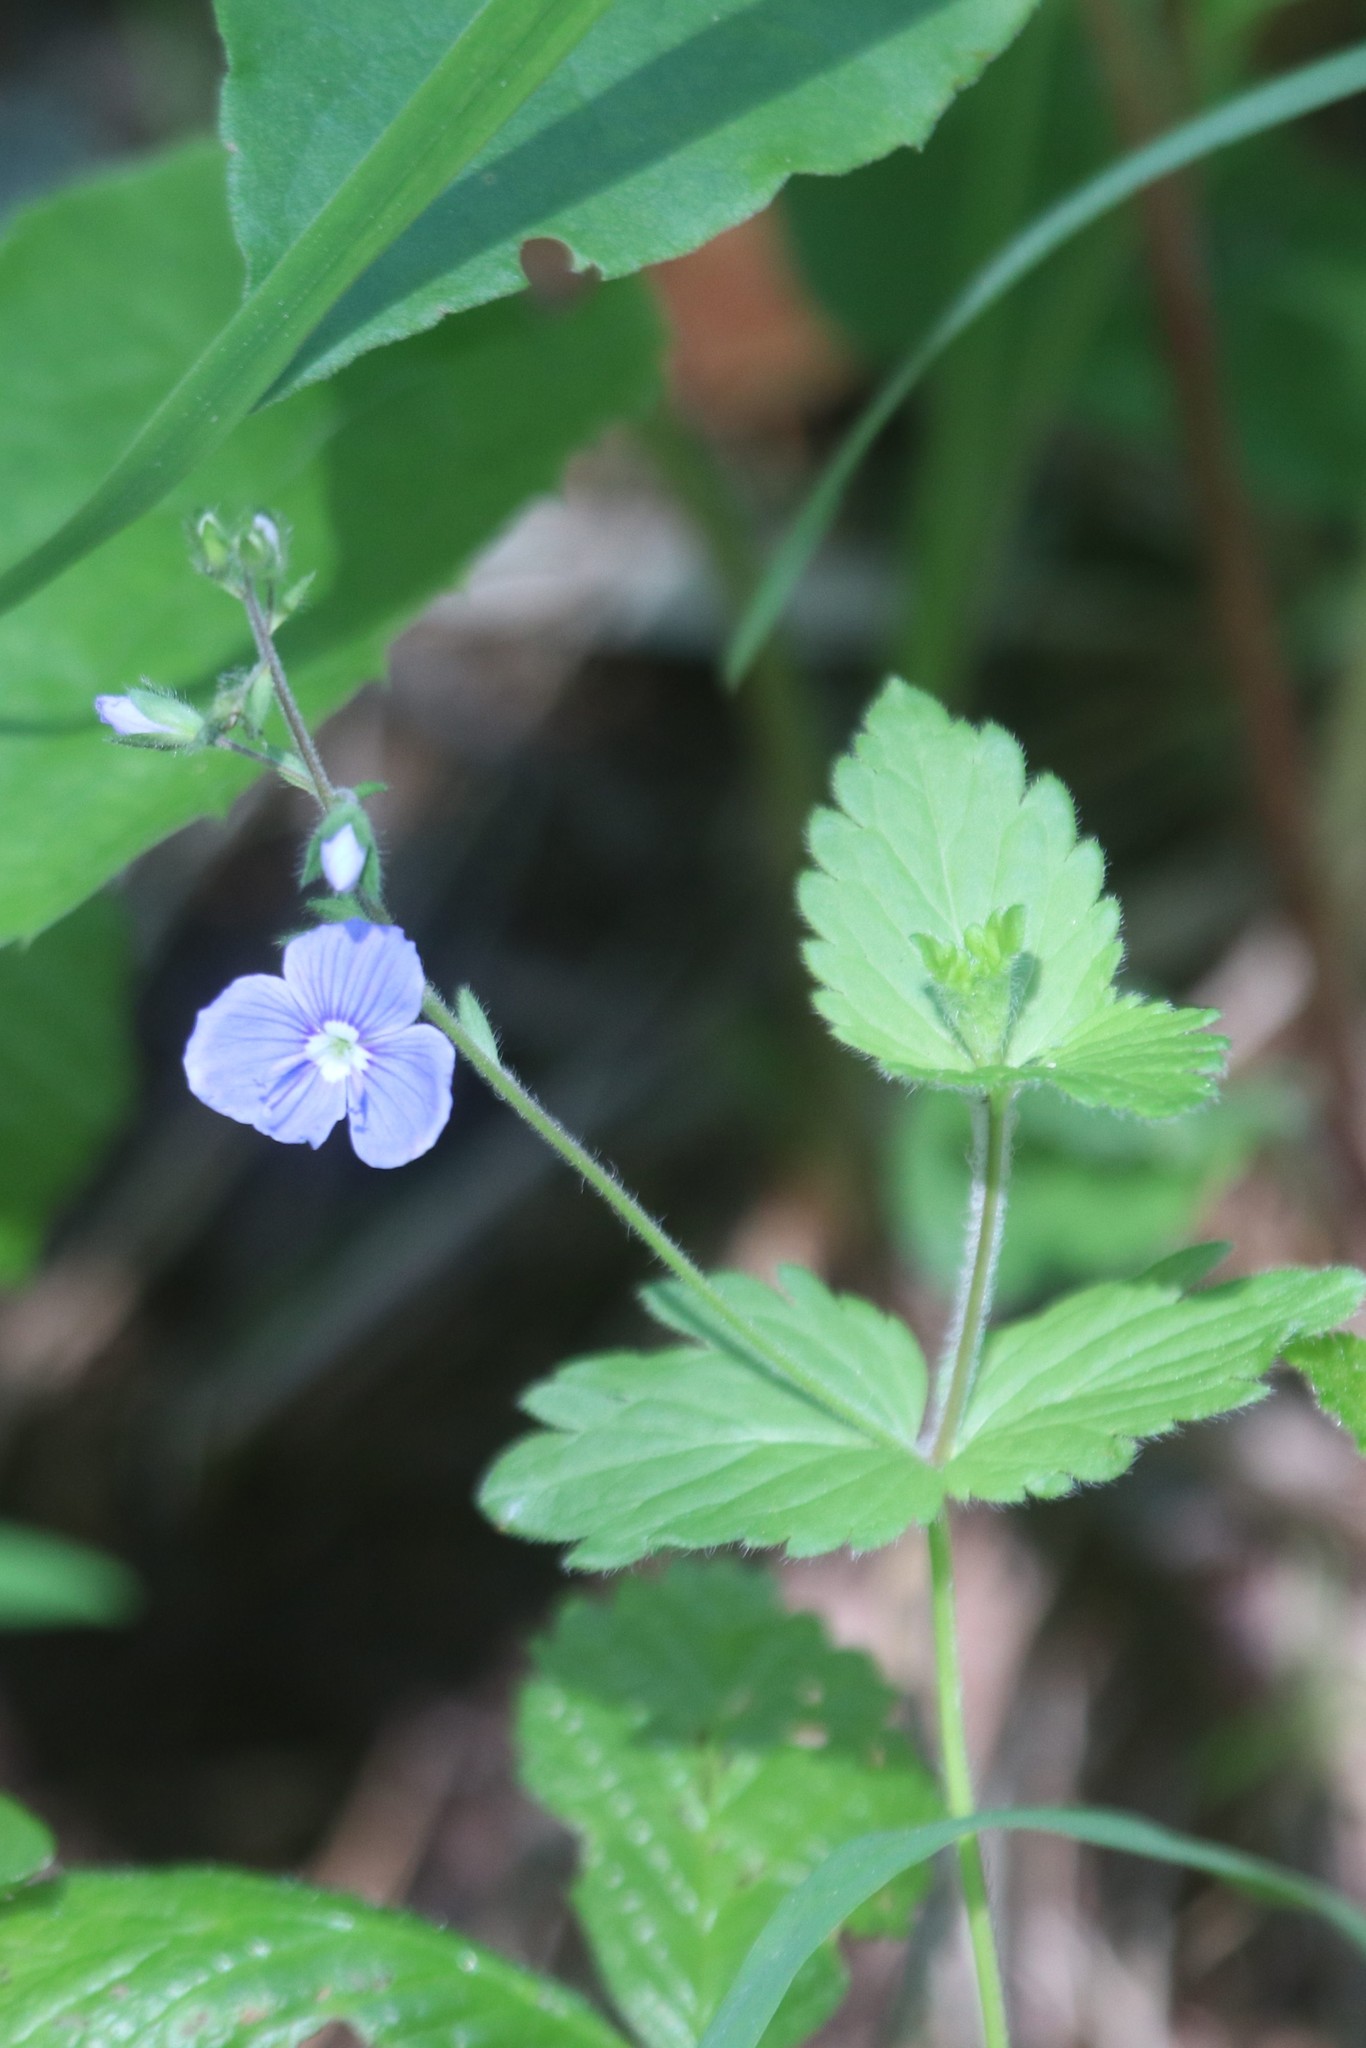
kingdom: Plantae
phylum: Tracheophyta
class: Magnoliopsida
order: Lamiales
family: Plantaginaceae
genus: Veronica
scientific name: Veronica chamaedrys
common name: Germander speedwell
